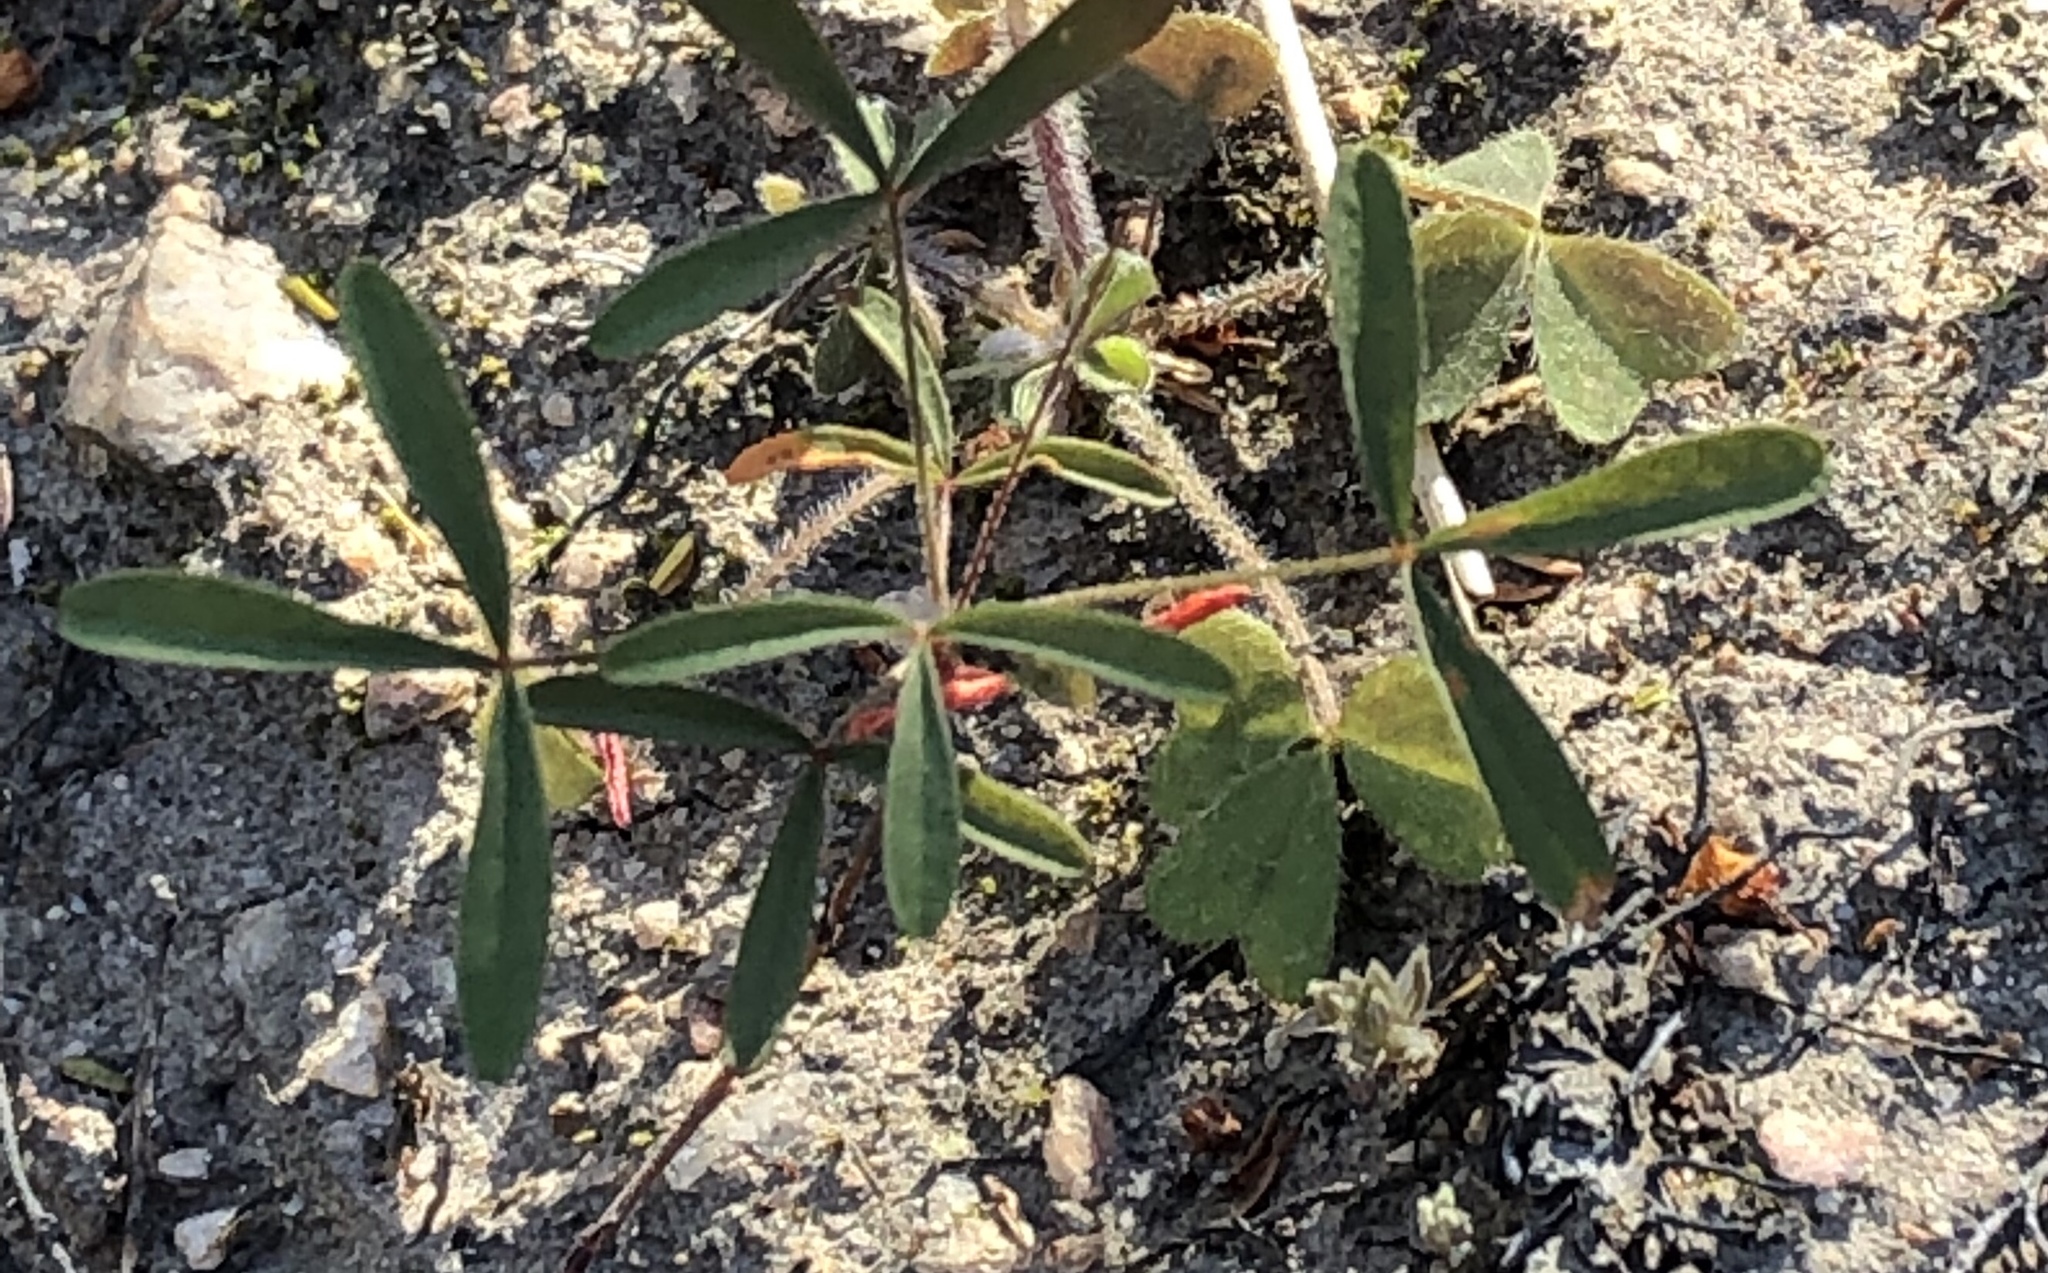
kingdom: Plantae
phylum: Tracheophyta
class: Magnoliopsida
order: Oxalidales
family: Oxalidaceae
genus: Oxalis
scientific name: Oxalis ciliaris
